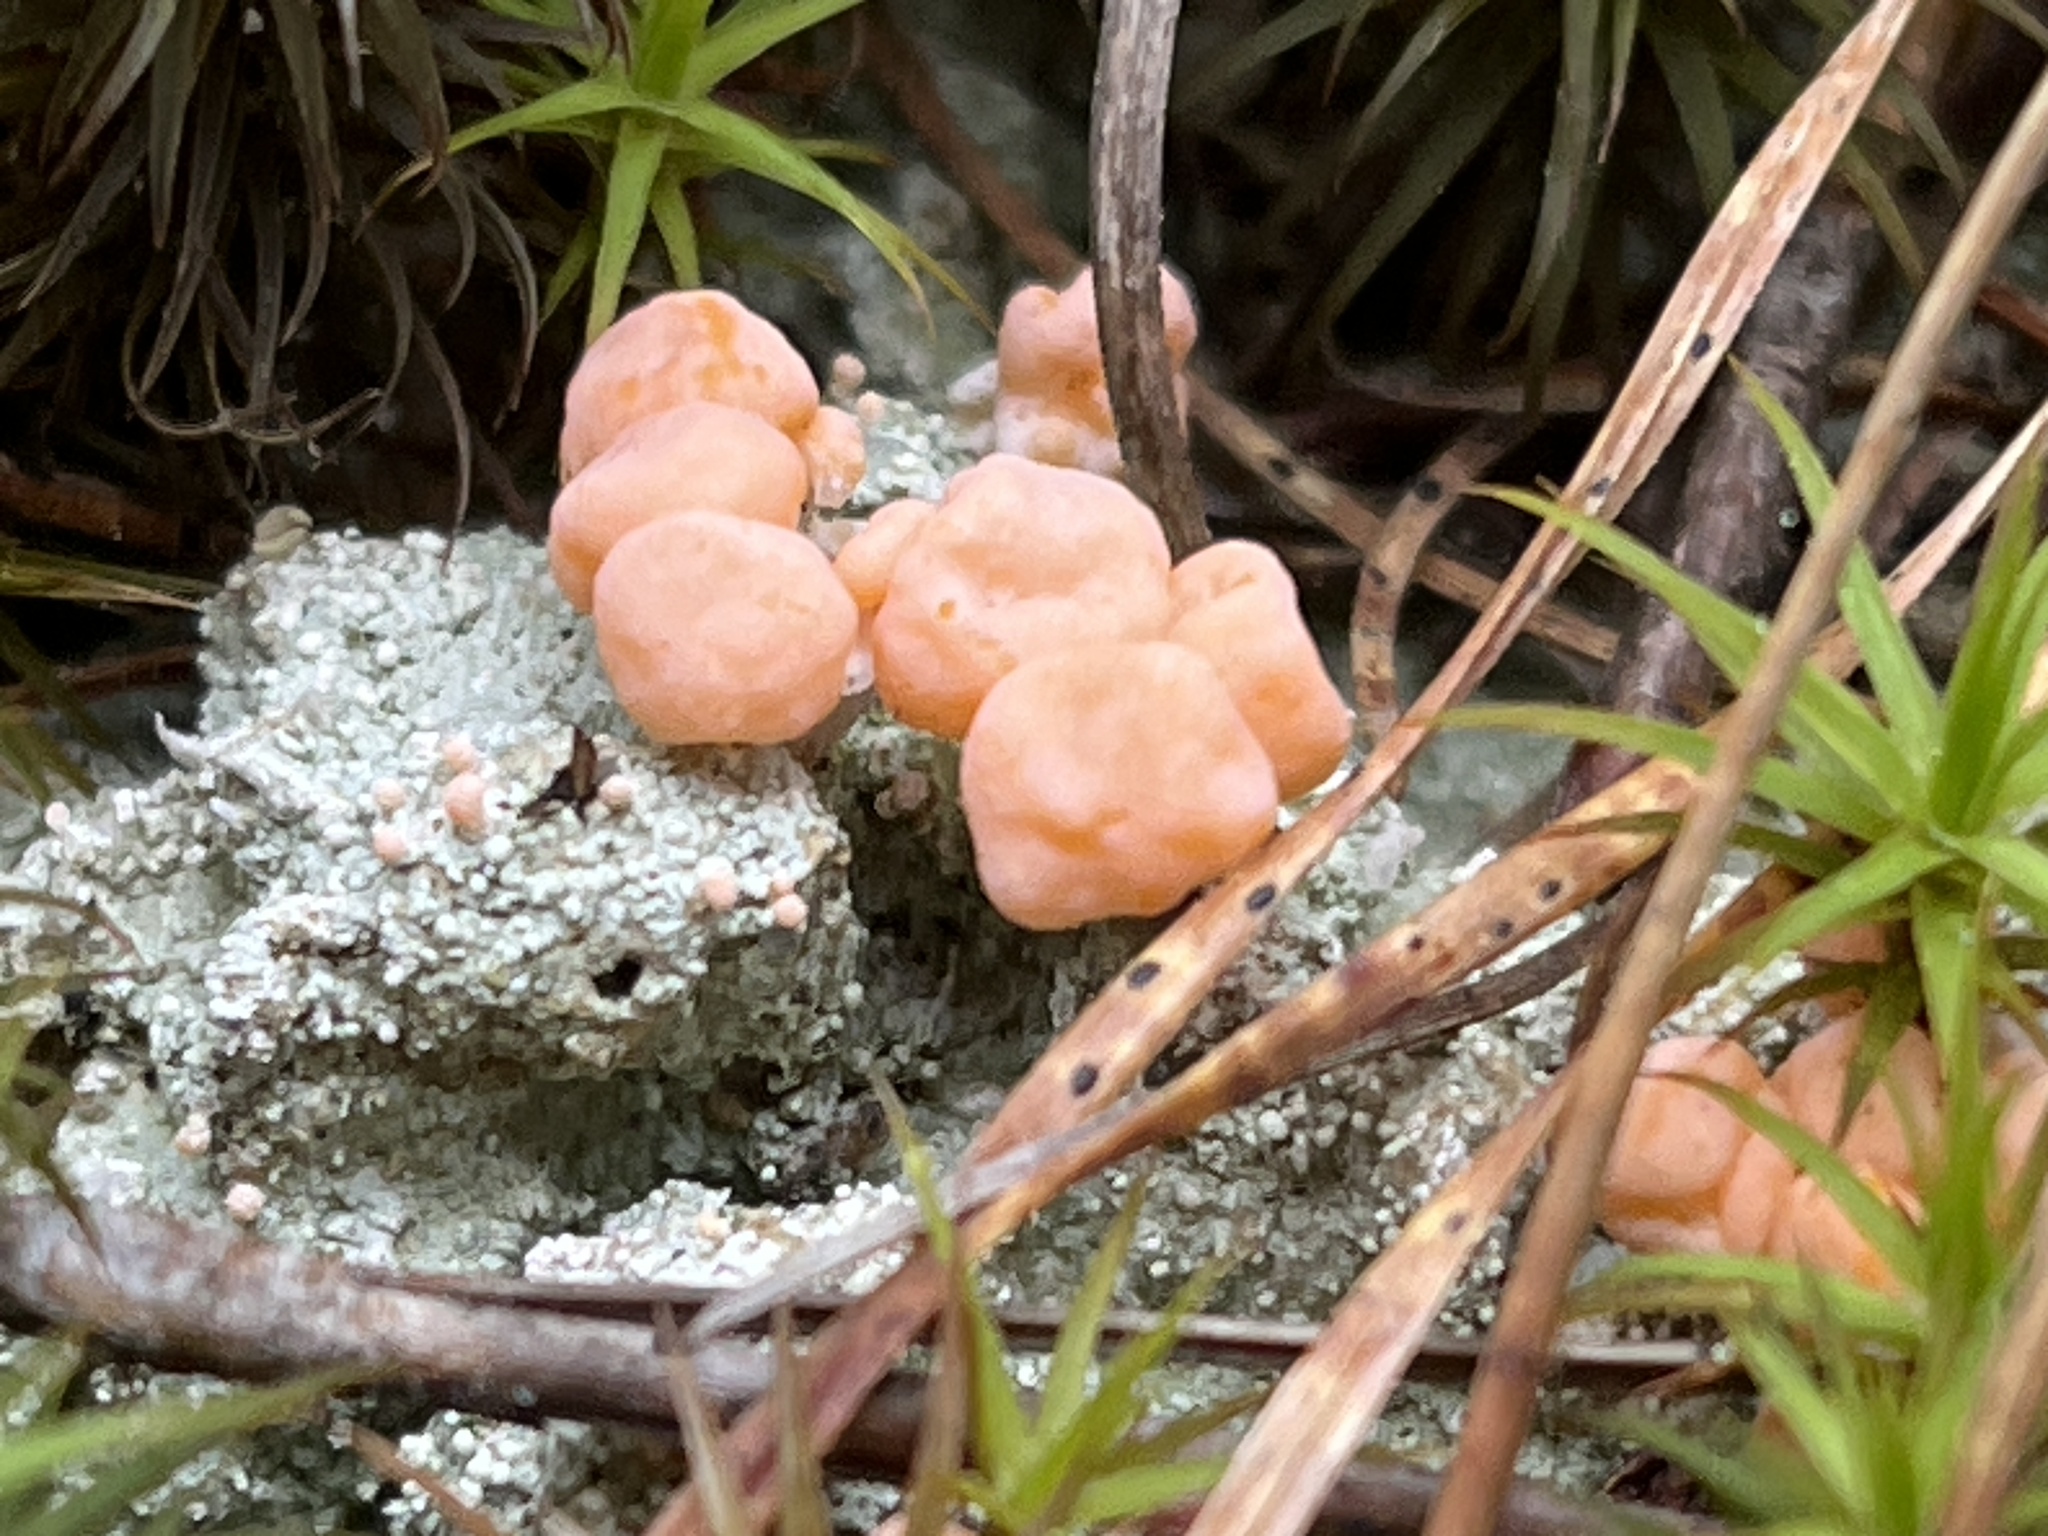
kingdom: Fungi
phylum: Ascomycota
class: Lecanoromycetes
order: Pertusariales
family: Icmadophilaceae
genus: Dibaeis
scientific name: Dibaeis baeomyces
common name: Pink earth lichen
